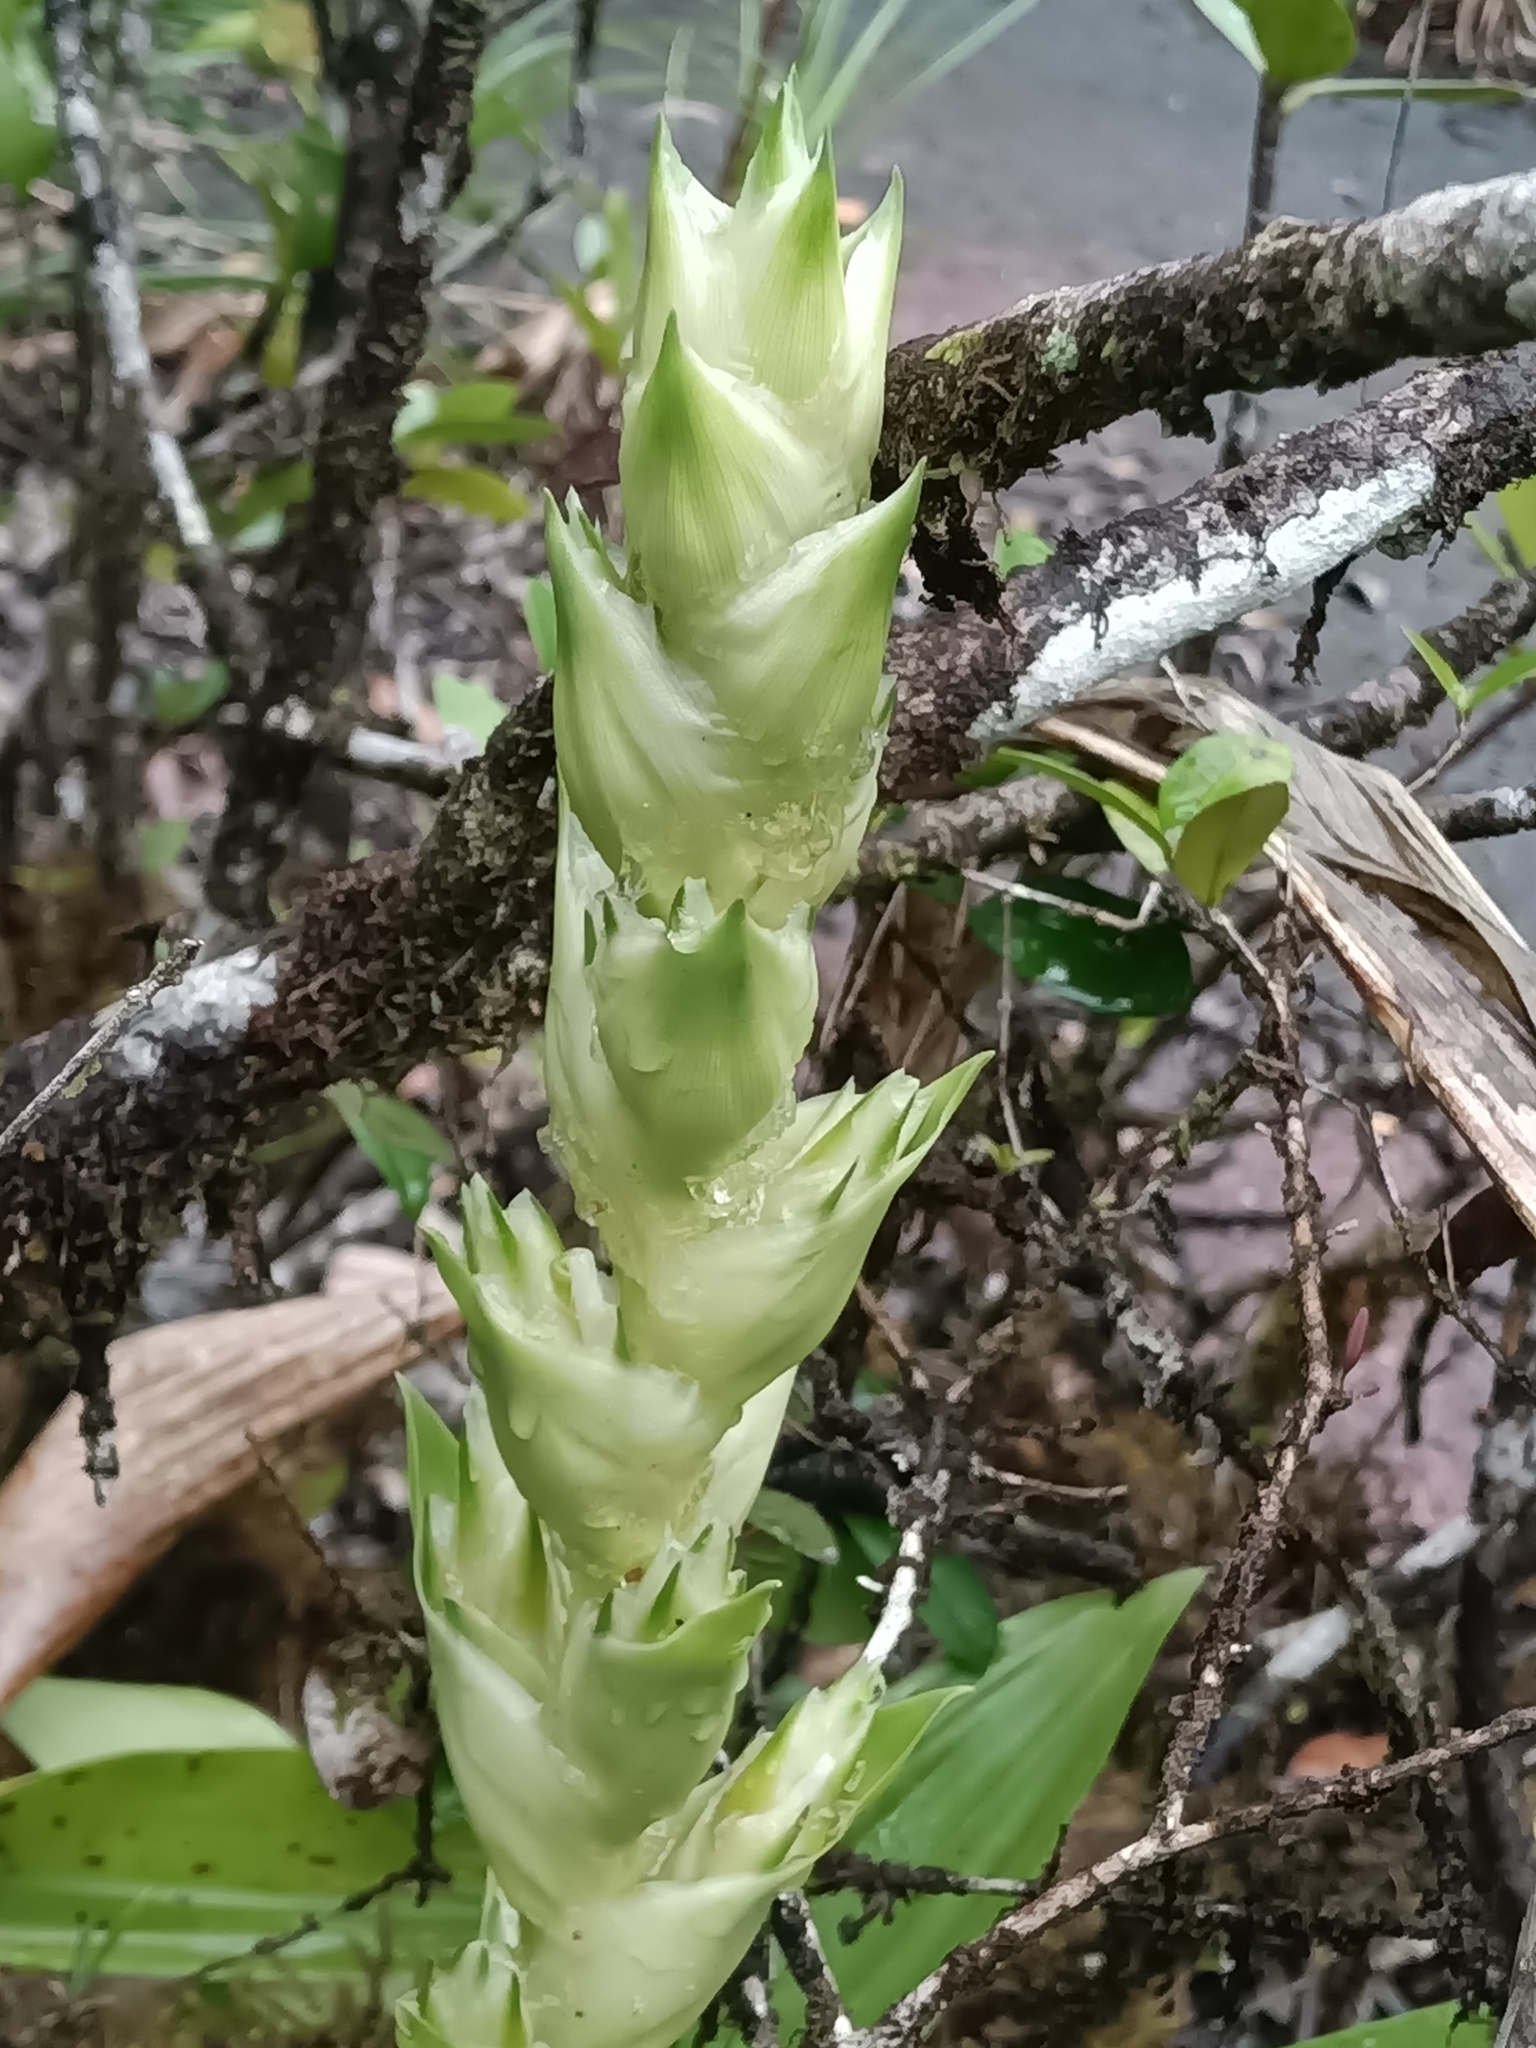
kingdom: Plantae
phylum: Tracheophyta
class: Liliopsida
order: Poales
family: Bromeliaceae
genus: Vriesea
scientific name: Vriesea pleiosticha
